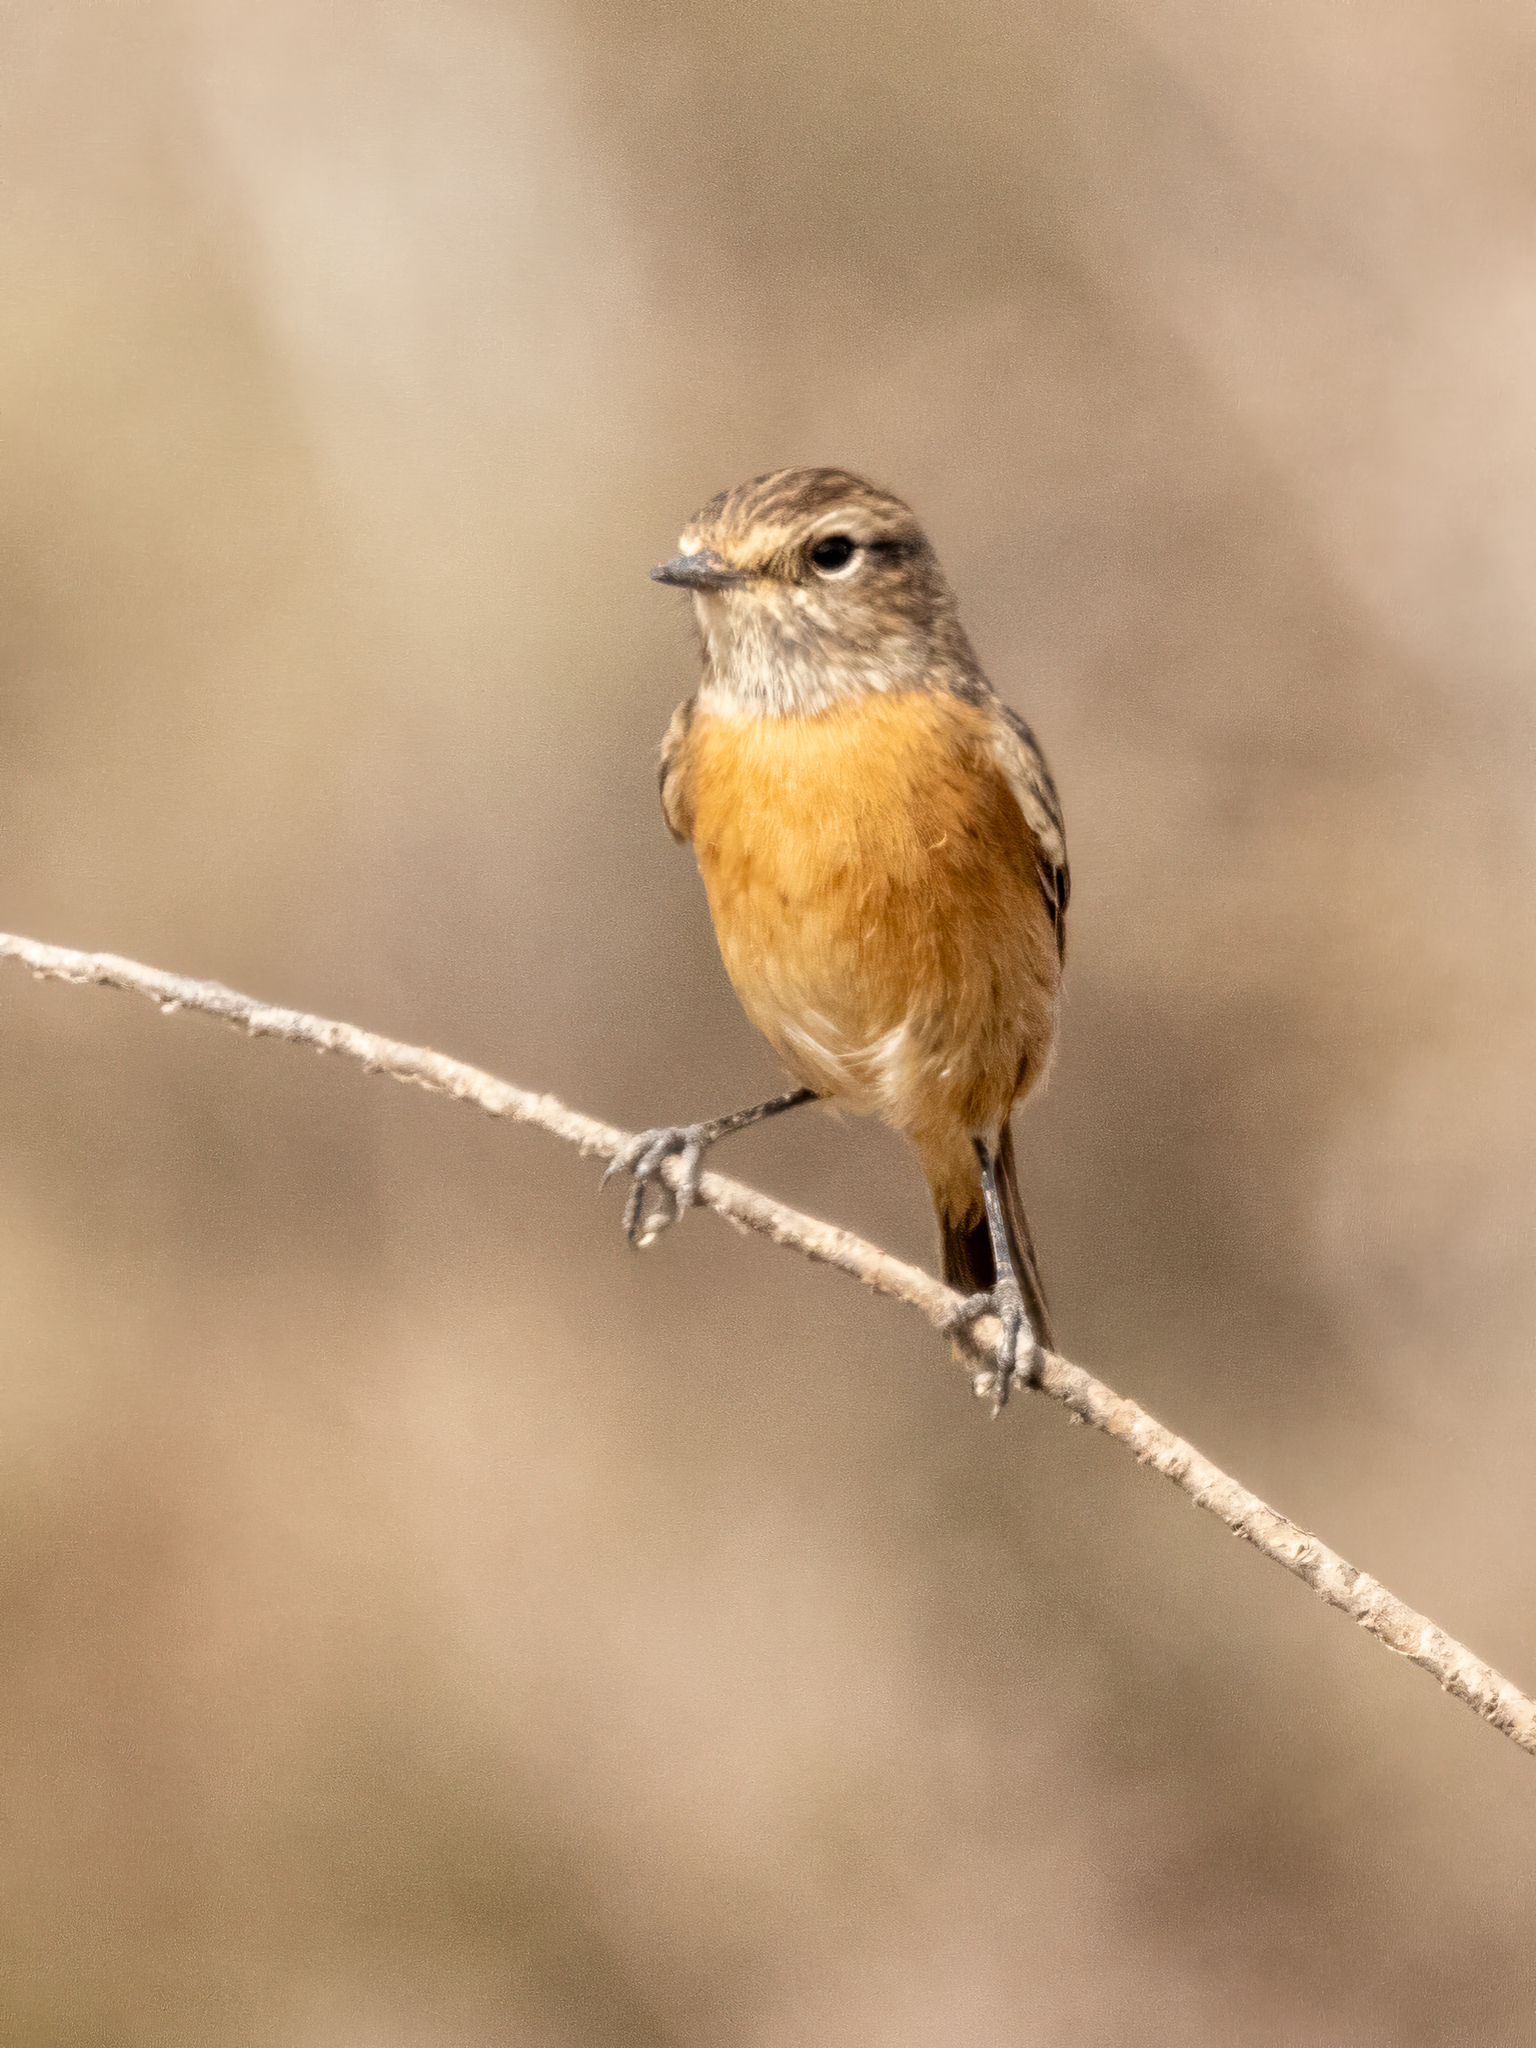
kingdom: Animalia
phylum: Chordata
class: Aves
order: Passeriformes
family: Muscicapidae
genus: Saxicola
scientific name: Saxicola rubicola
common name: European stonechat
